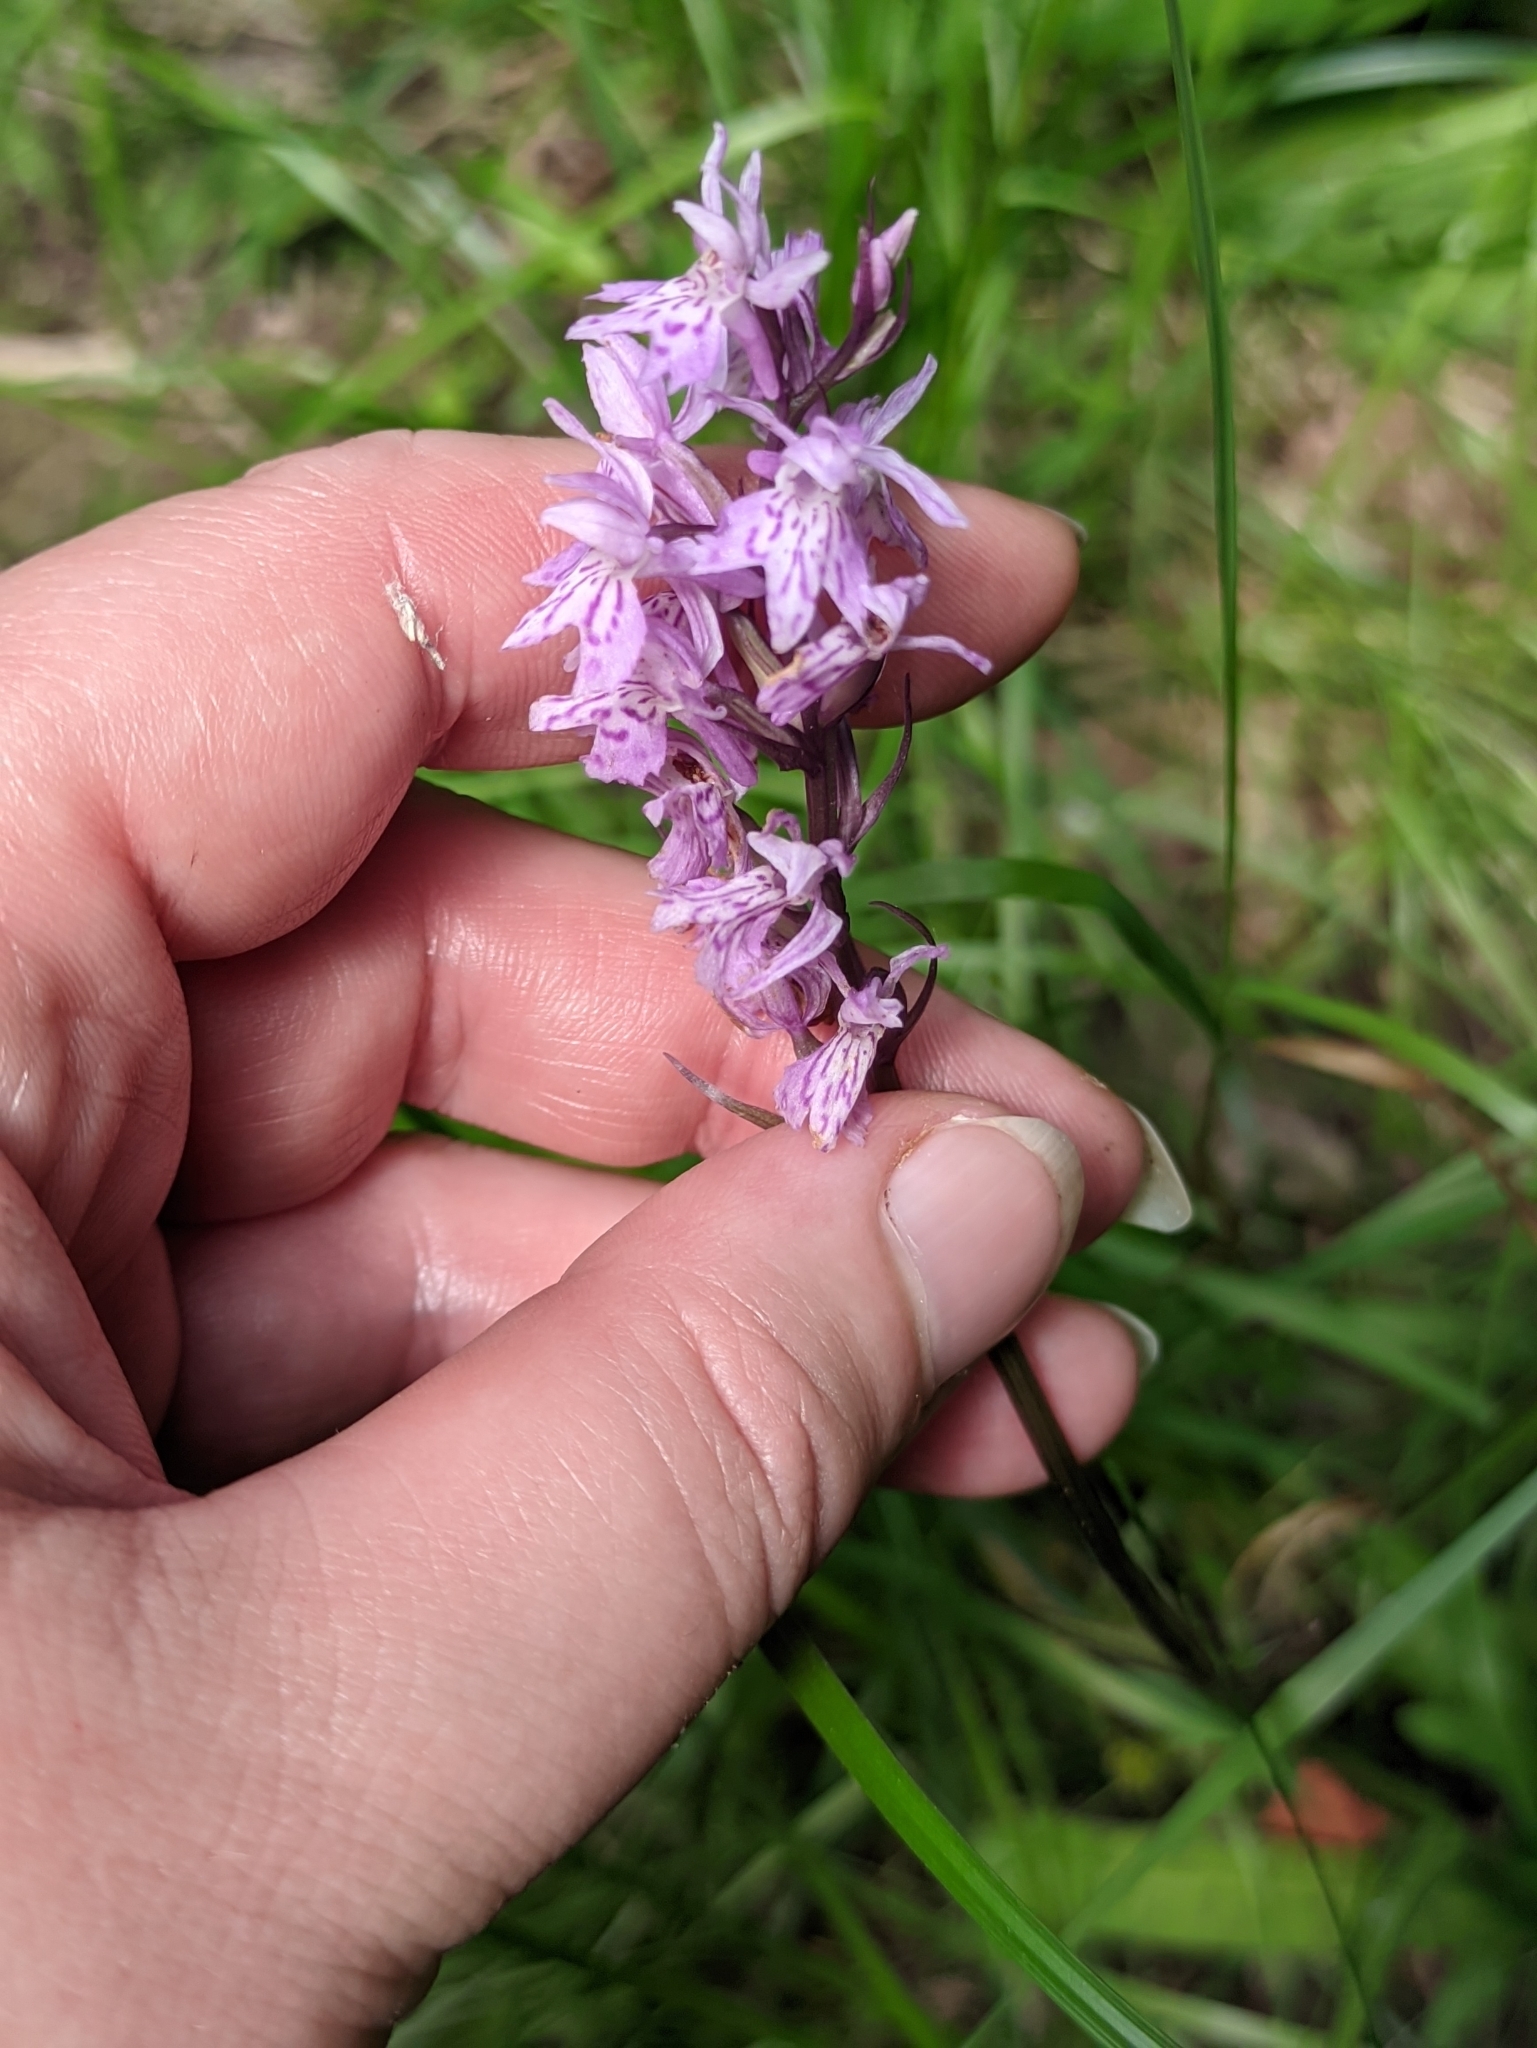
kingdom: Plantae
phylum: Tracheophyta
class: Liliopsida
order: Asparagales
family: Orchidaceae
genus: Dactylorhiza
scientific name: Dactylorhiza maculata
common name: Heath spotted-orchid
